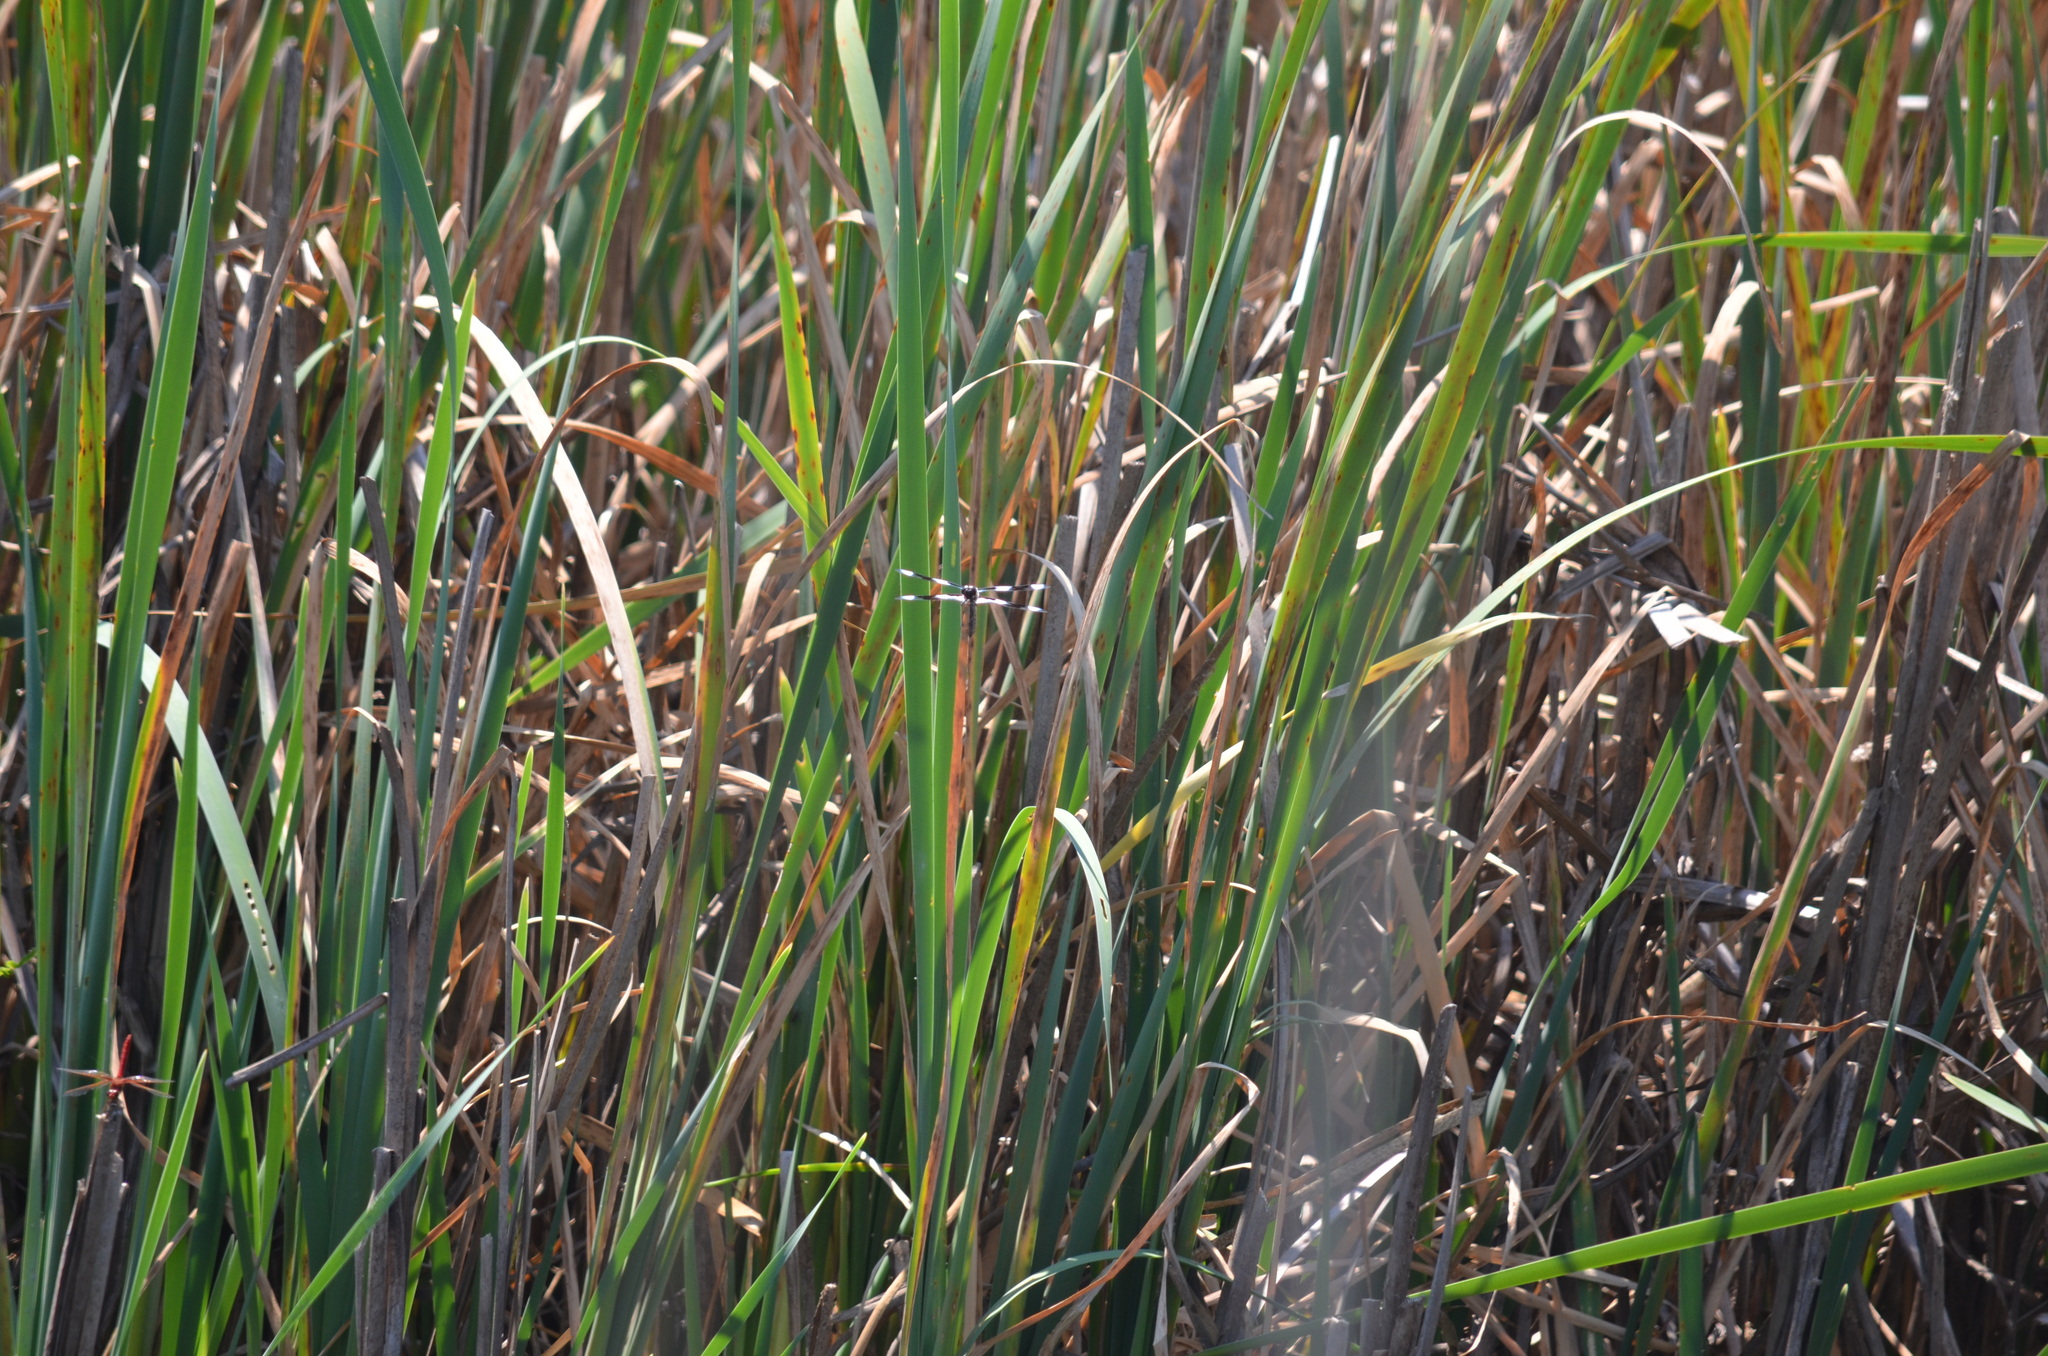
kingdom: Animalia
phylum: Arthropoda
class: Insecta
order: Odonata
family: Libellulidae
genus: Libellula
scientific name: Libellula forensis
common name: Eight-spotted skimmer
